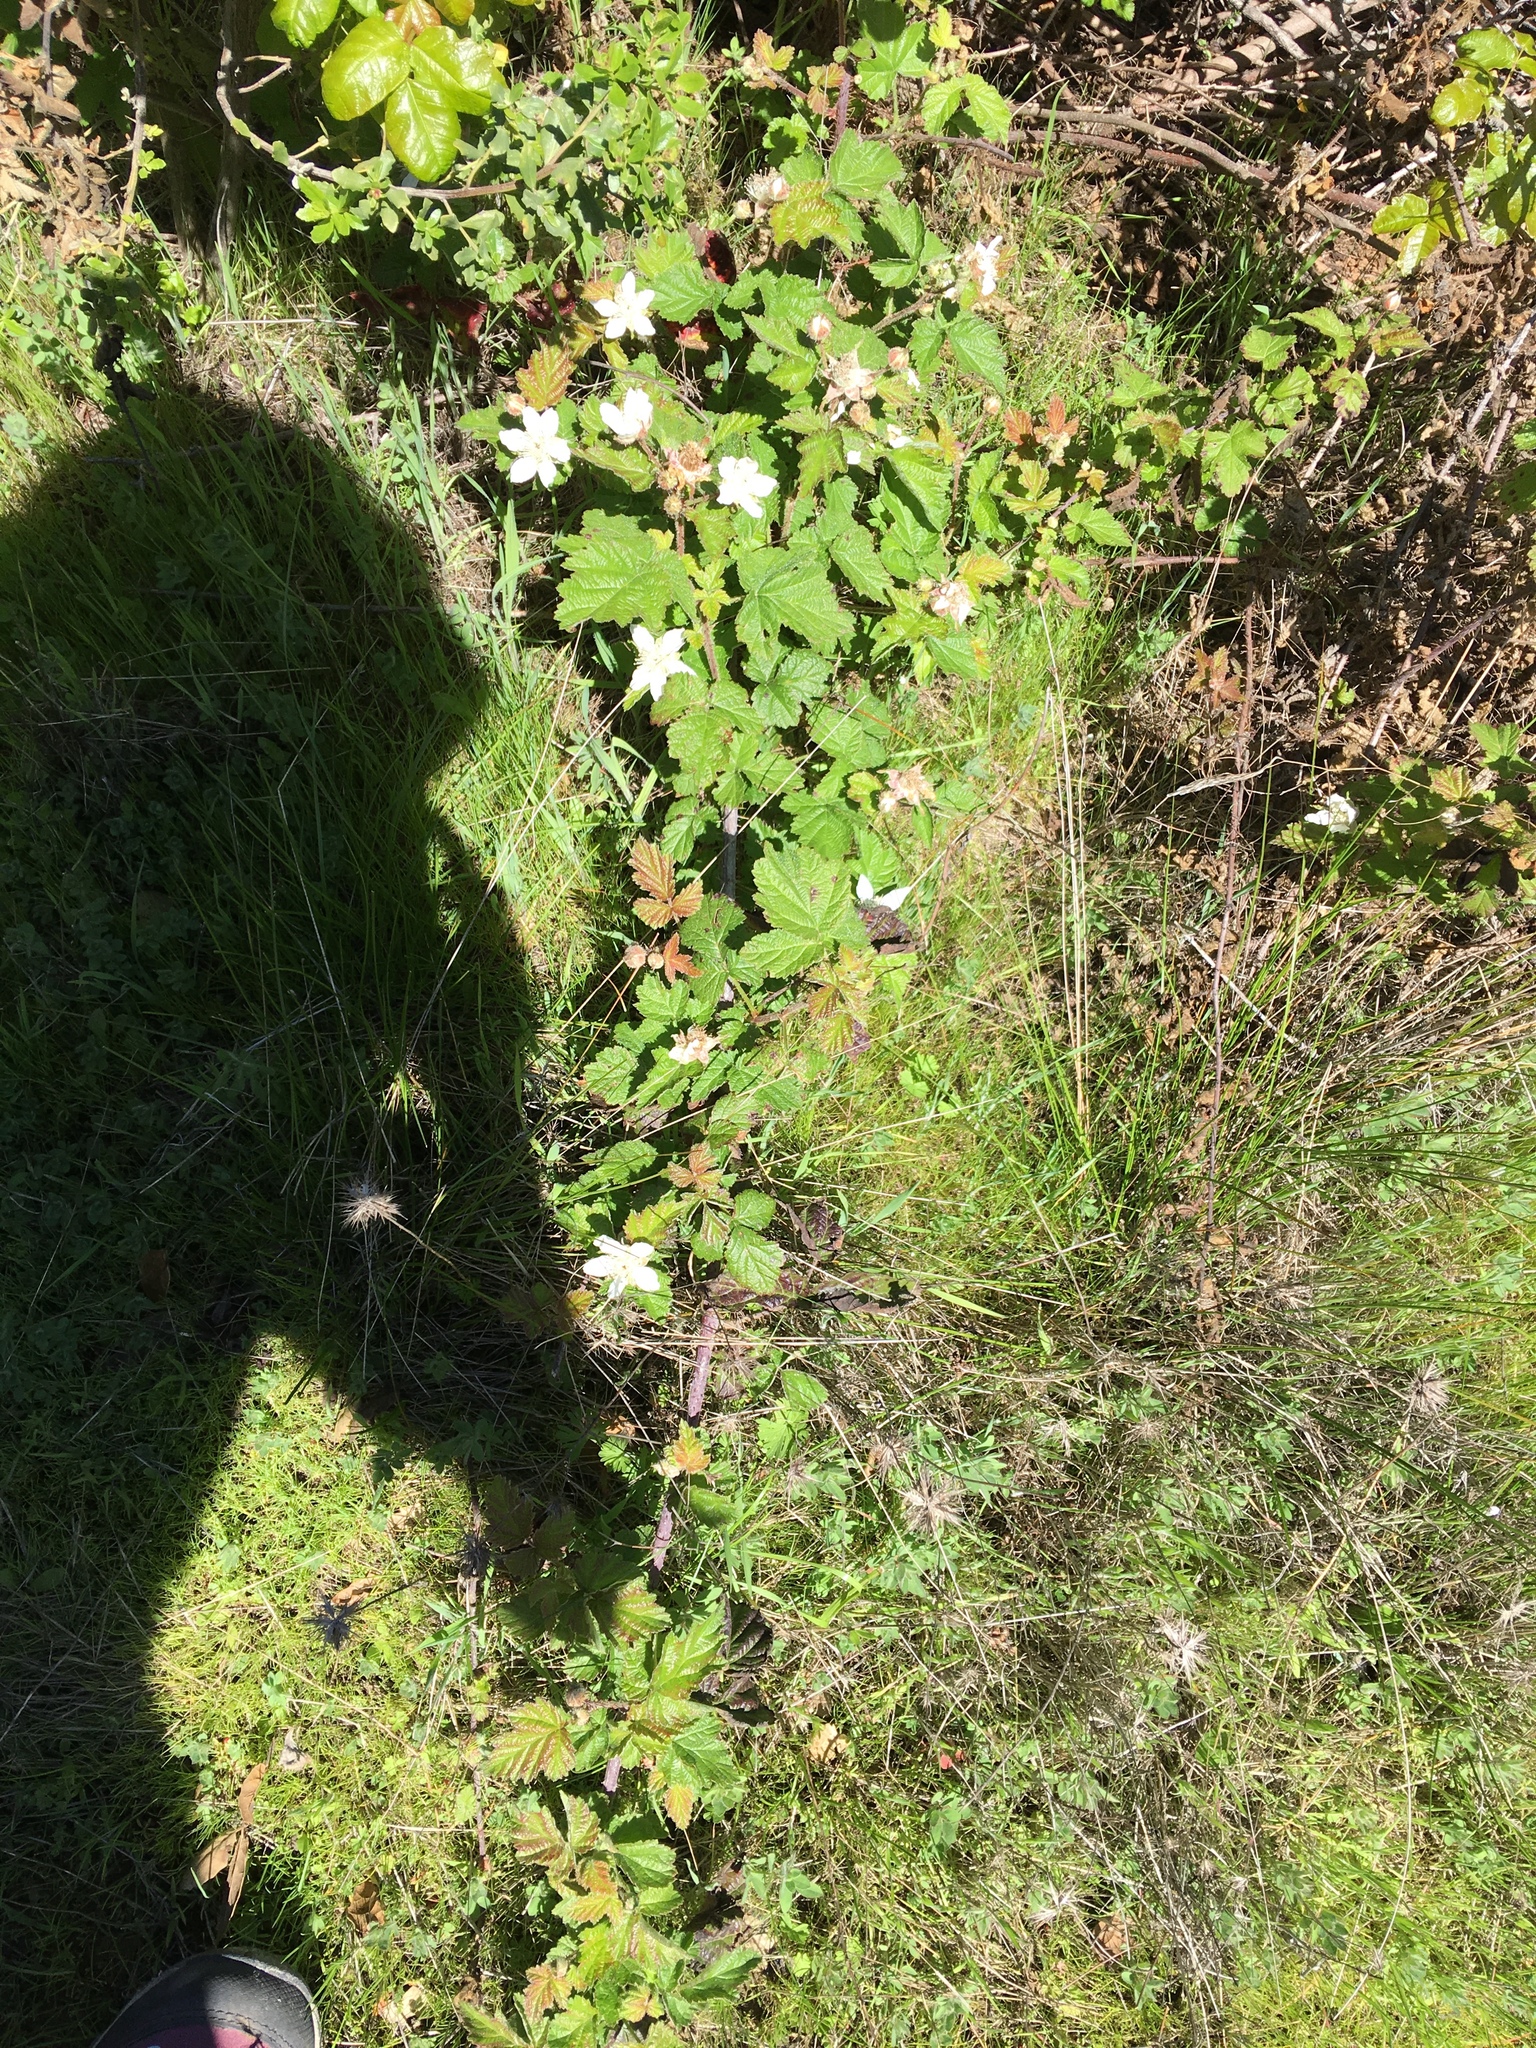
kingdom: Plantae
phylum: Tracheophyta
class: Magnoliopsida
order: Rosales
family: Rosaceae
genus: Rubus
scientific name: Rubus ursinus
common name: Pacific blackberry
